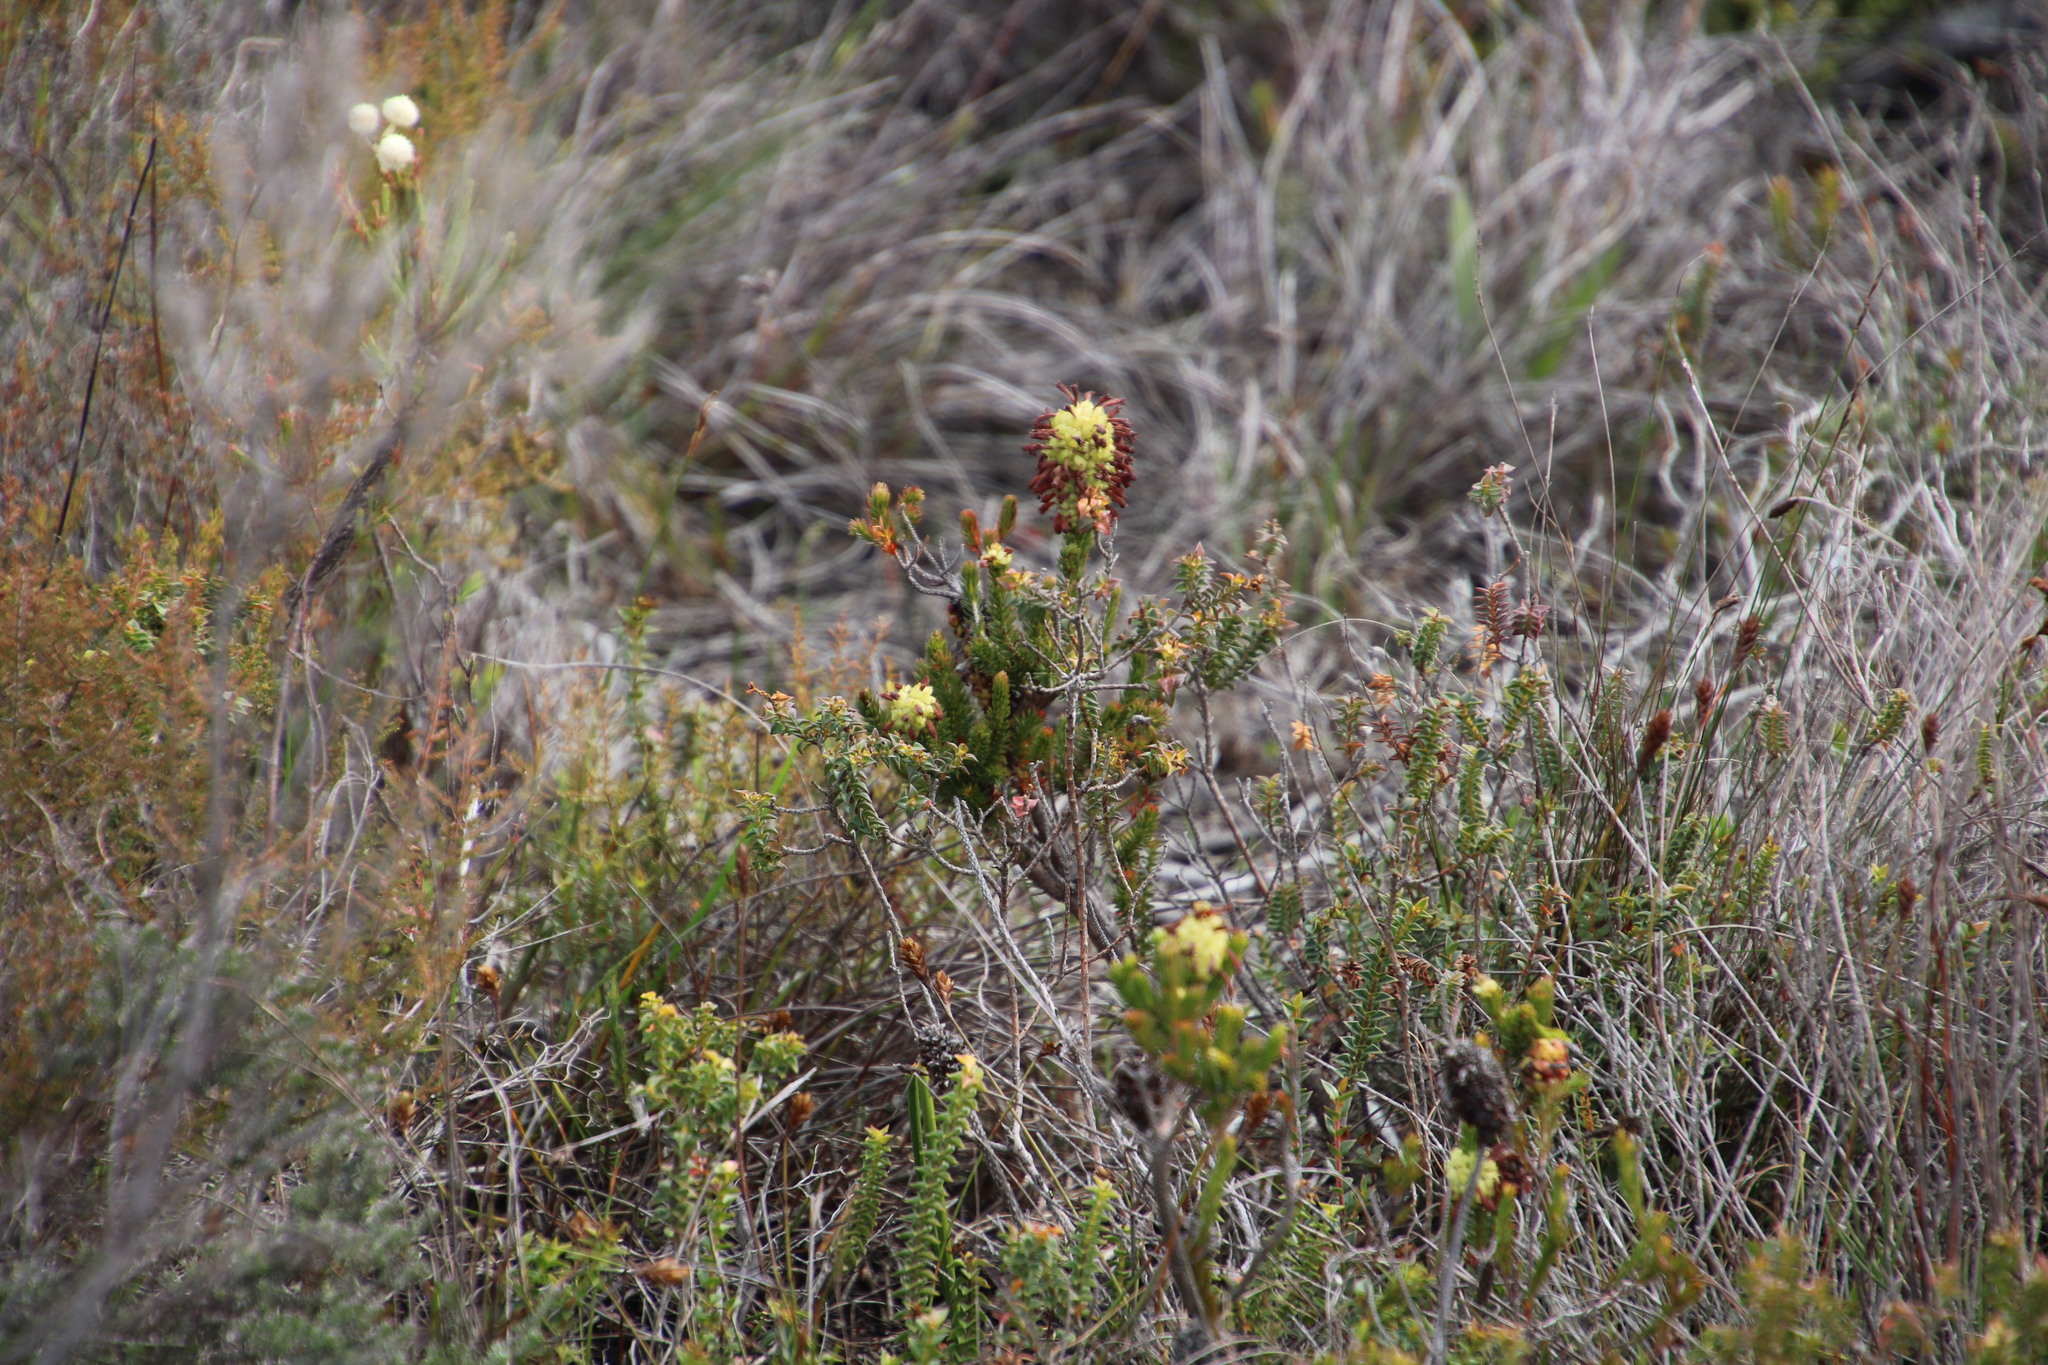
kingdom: Plantae
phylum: Tracheophyta
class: Magnoliopsida
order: Ericales
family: Ericaceae
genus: Erica
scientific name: Erica sessiliflora
